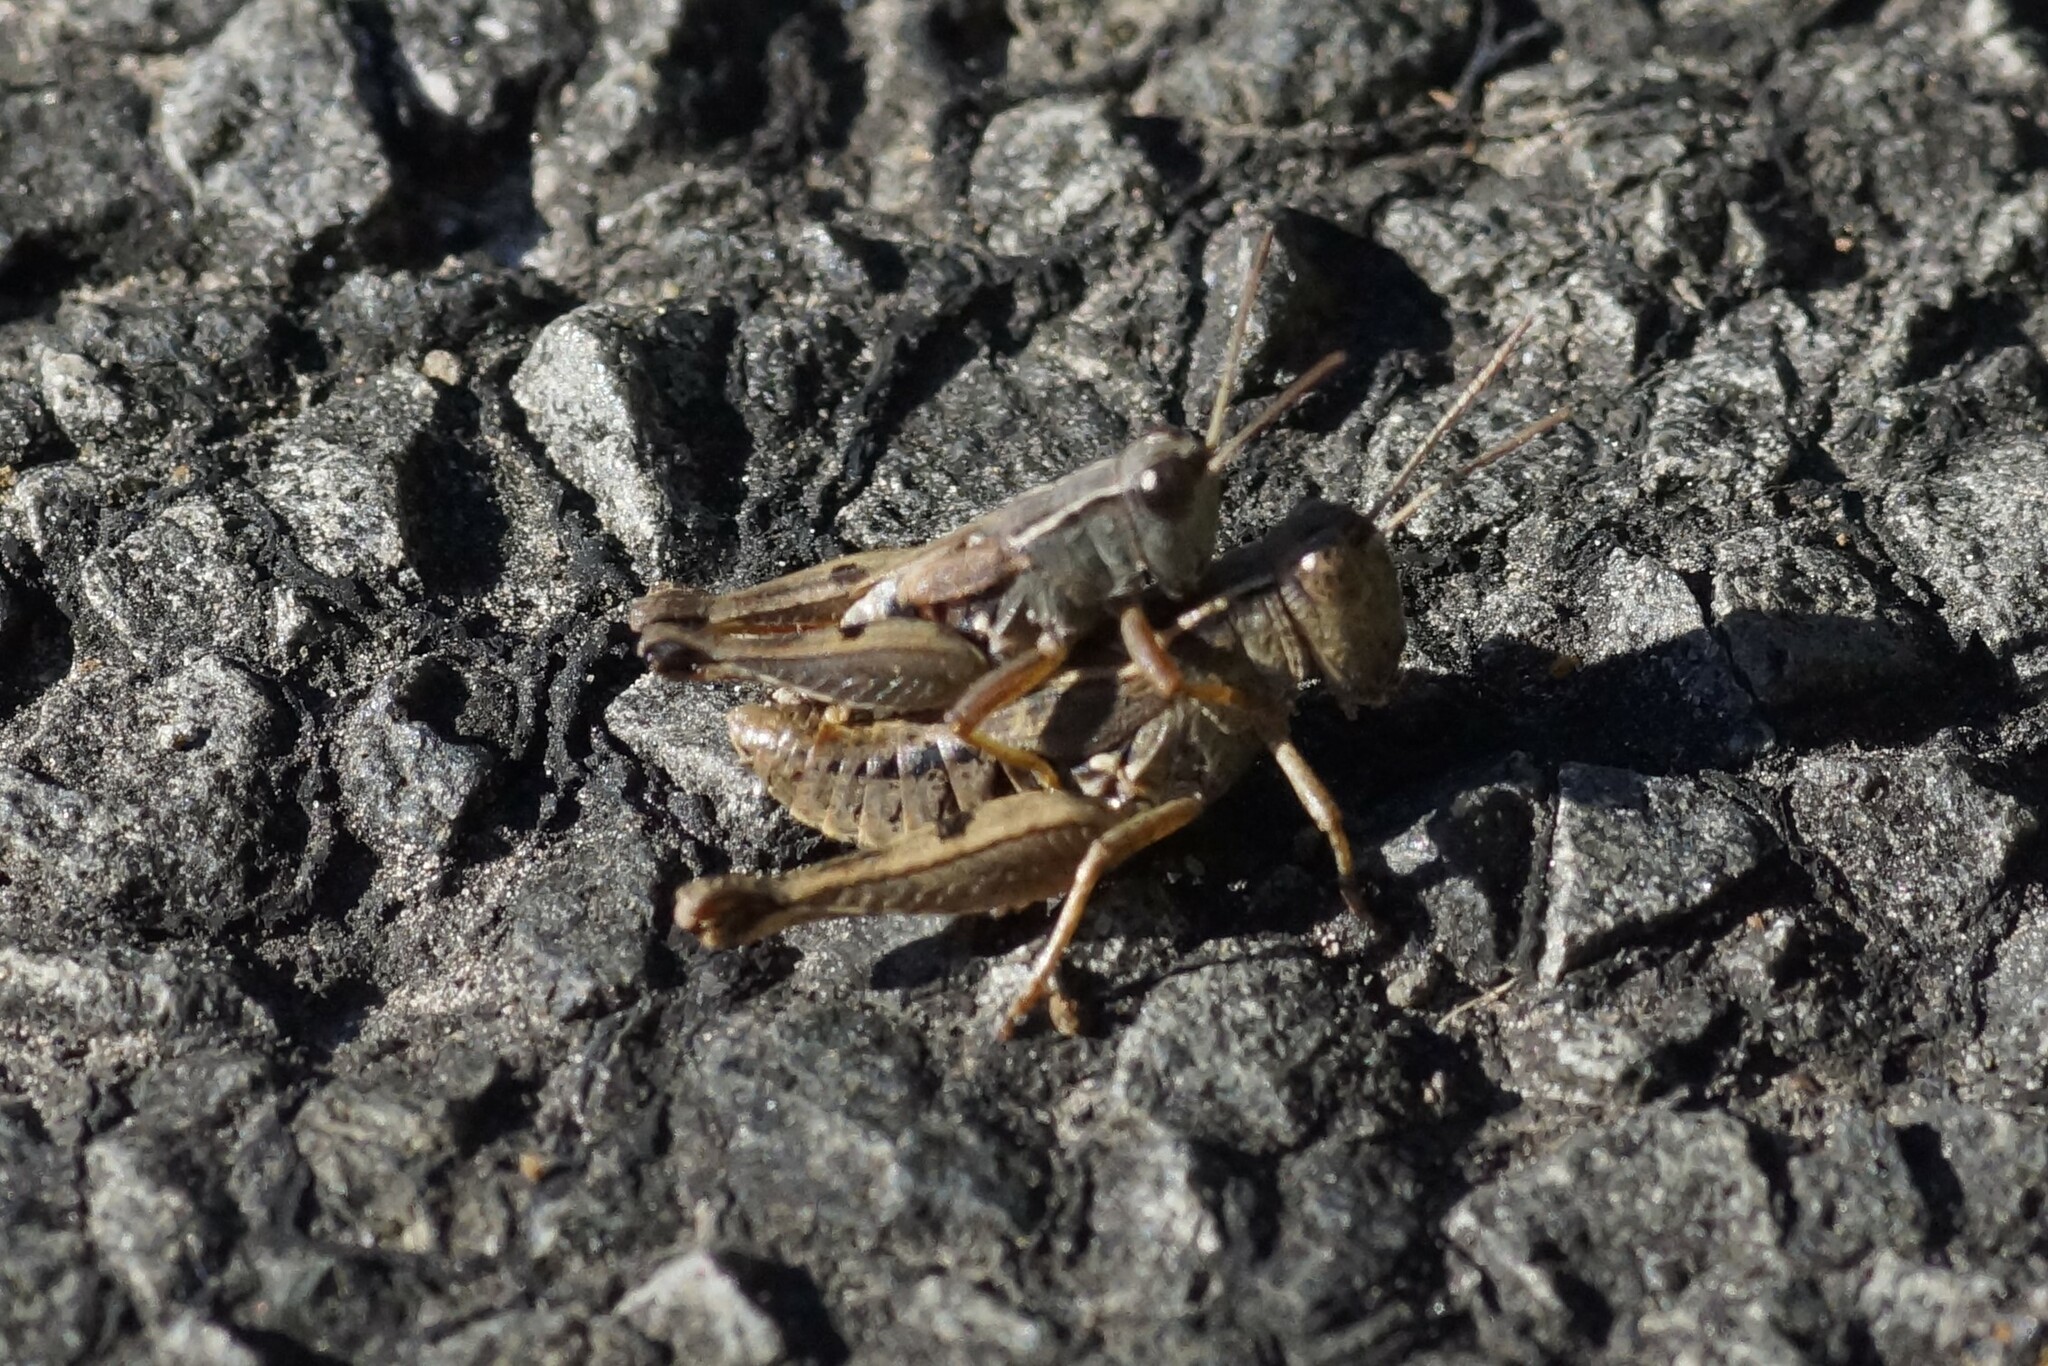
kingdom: Animalia
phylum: Arthropoda
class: Insecta
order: Orthoptera
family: Acrididae
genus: Phaulacridium
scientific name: Phaulacridium vittatum
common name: Wingless grasshopper
